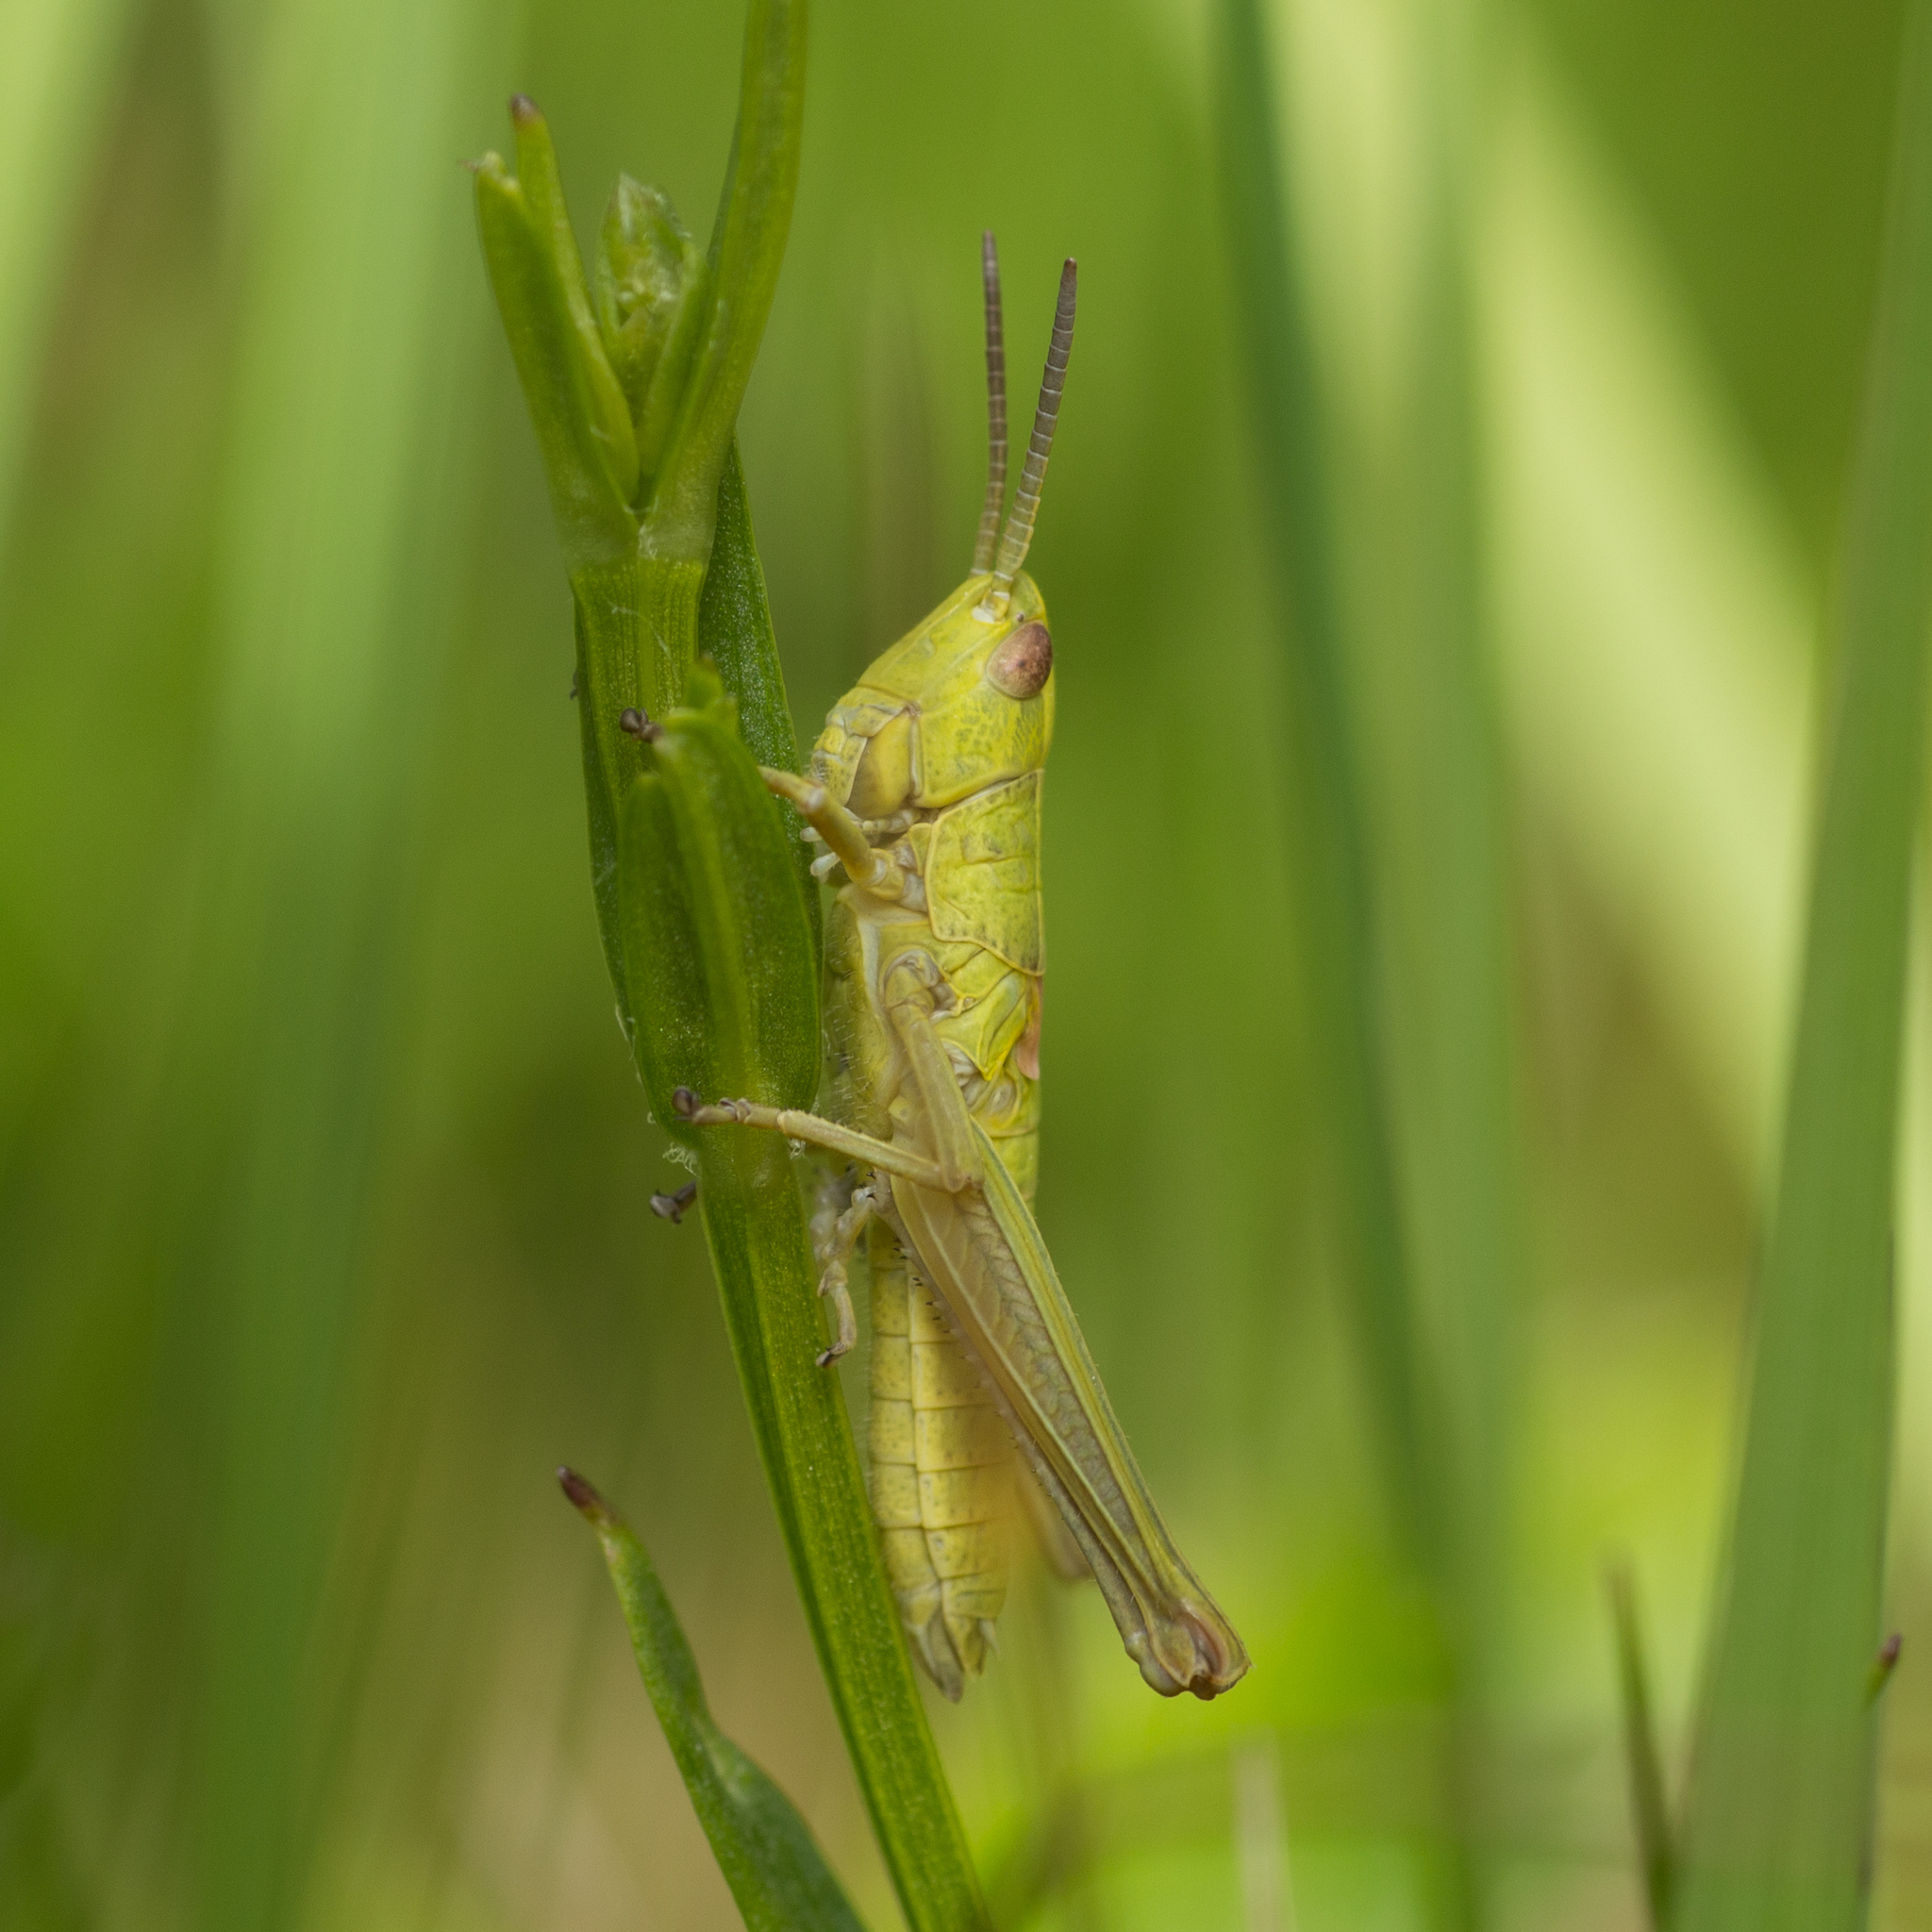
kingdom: Animalia
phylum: Arthropoda
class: Insecta
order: Orthoptera
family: Acrididae
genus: Euthystira
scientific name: Euthystira brachyptera
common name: Small gold grasshopper
